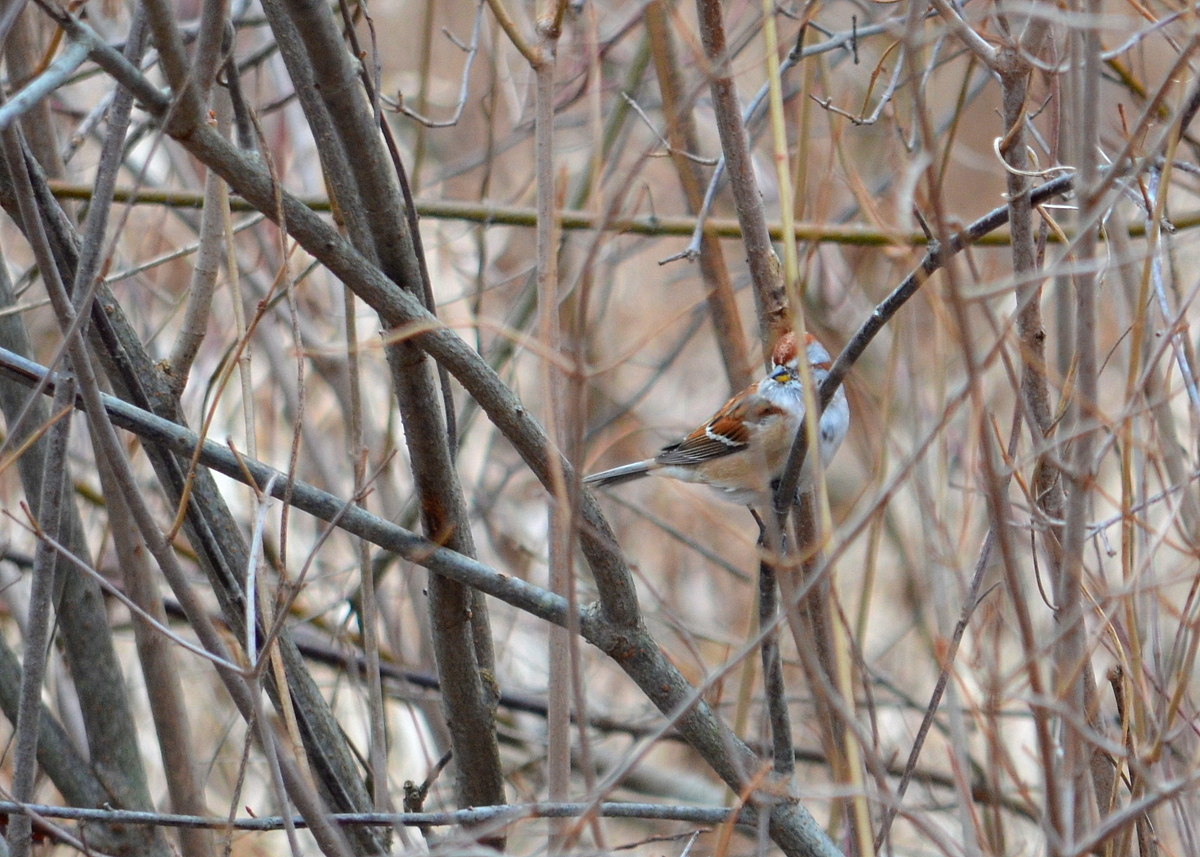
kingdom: Animalia
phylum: Chordata
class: Aves
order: Passeriformes
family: Passerellidae
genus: Spizelloides
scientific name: Spizelloides arborea
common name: American tree sparrow
